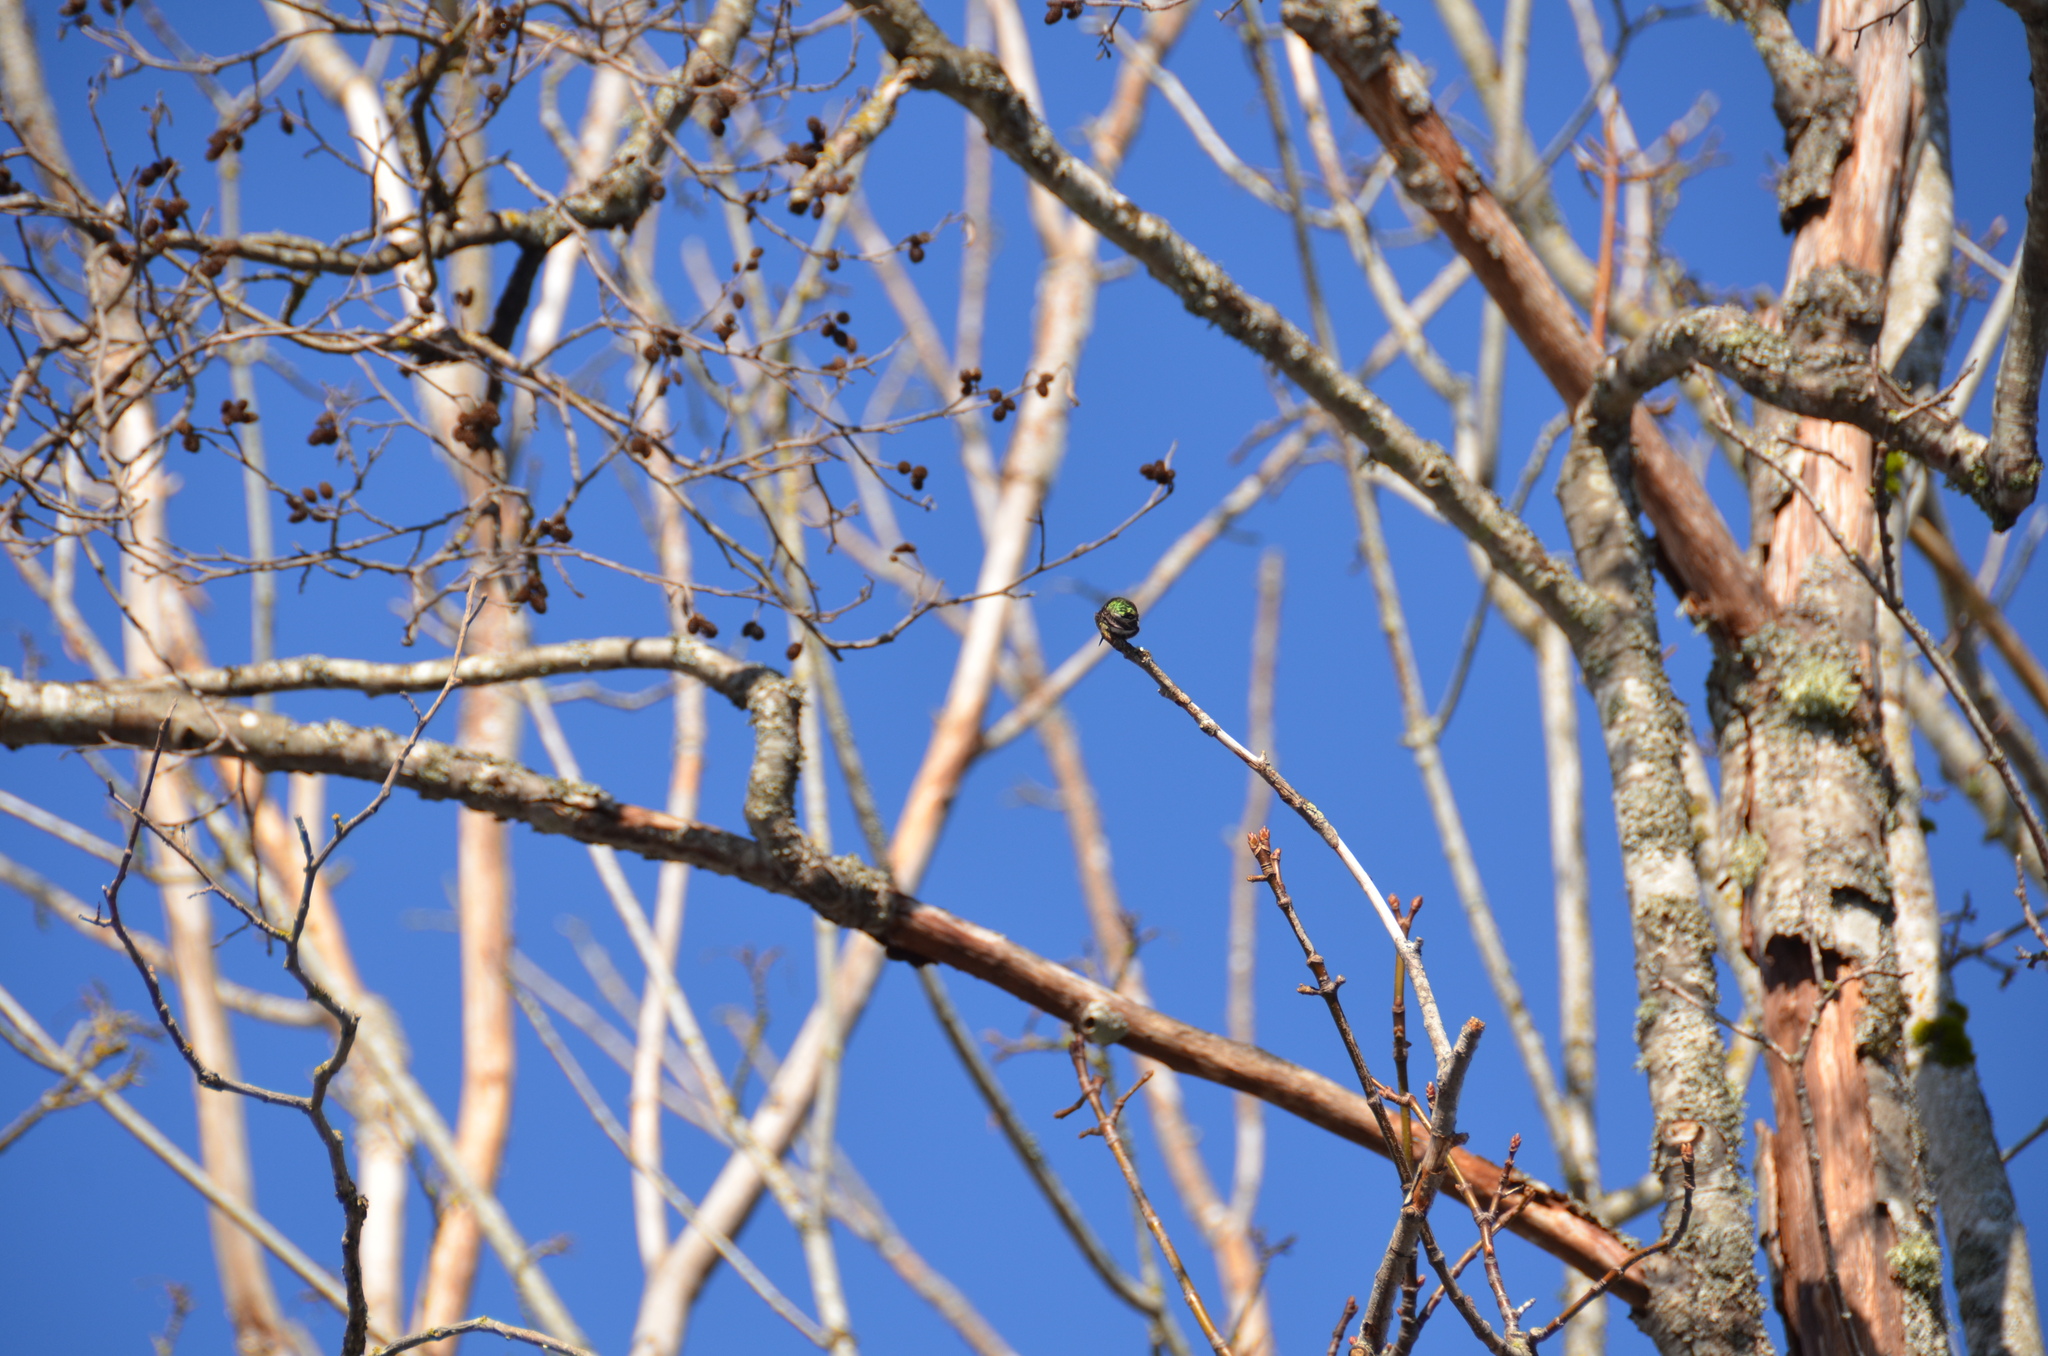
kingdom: Animalia
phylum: Chordata
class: Aves
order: Apodiformes
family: Trochilidae
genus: Calypte
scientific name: Calypte anna
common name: Anna's hummingbird
